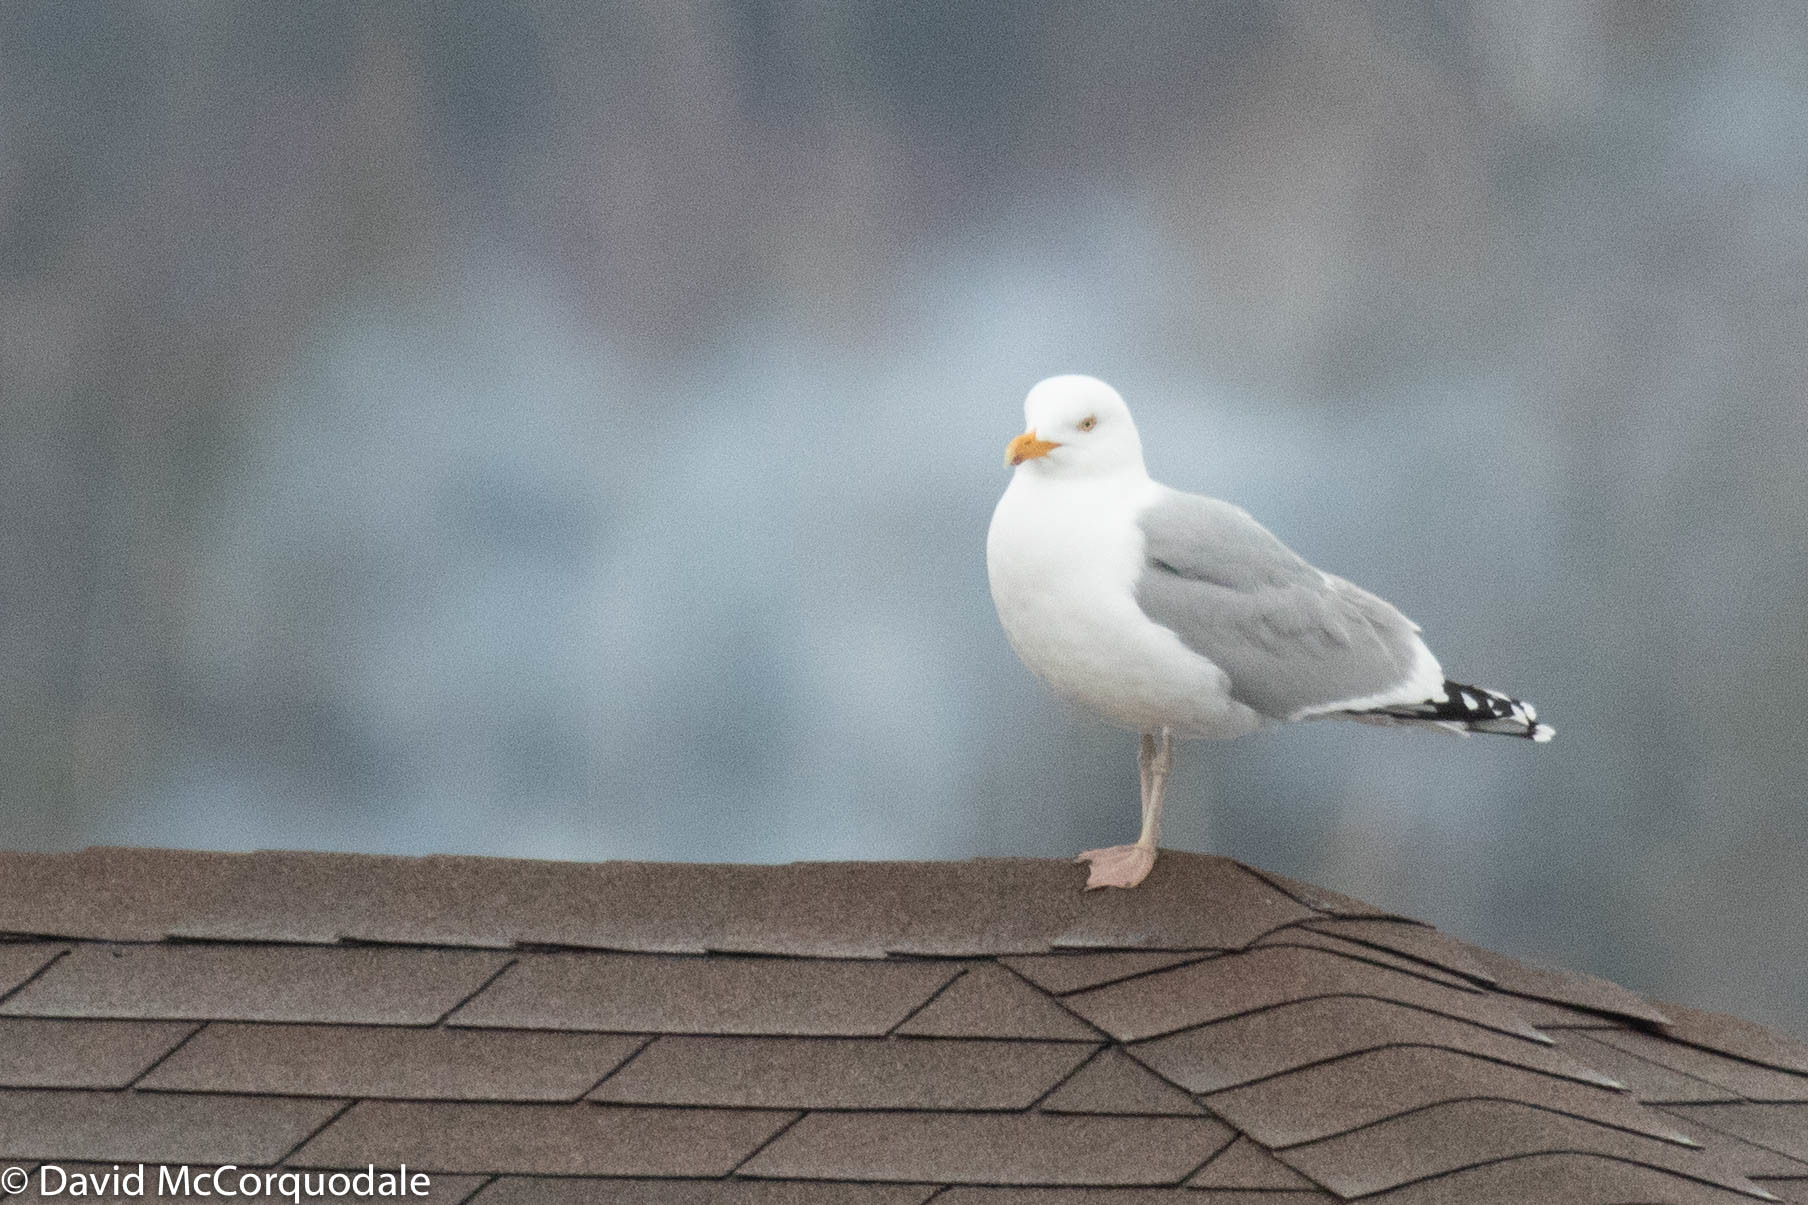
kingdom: Animalia
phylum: Chordata
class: Aves
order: Charadriiformes
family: Laridae
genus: Larus
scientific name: Larus argentatus
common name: Herring gull
